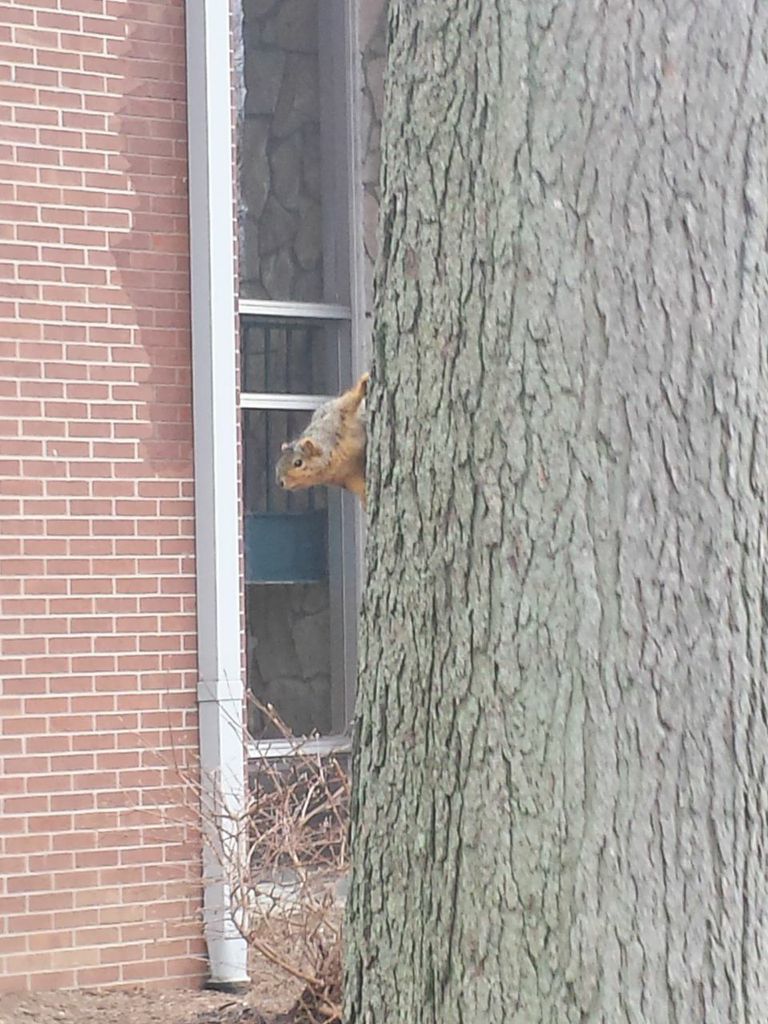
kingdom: Animalia
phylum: Chordata
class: Mammalia
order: Rodentia
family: Sciuridae
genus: Sciurus
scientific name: Sciurus niger
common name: Fox squirrel
